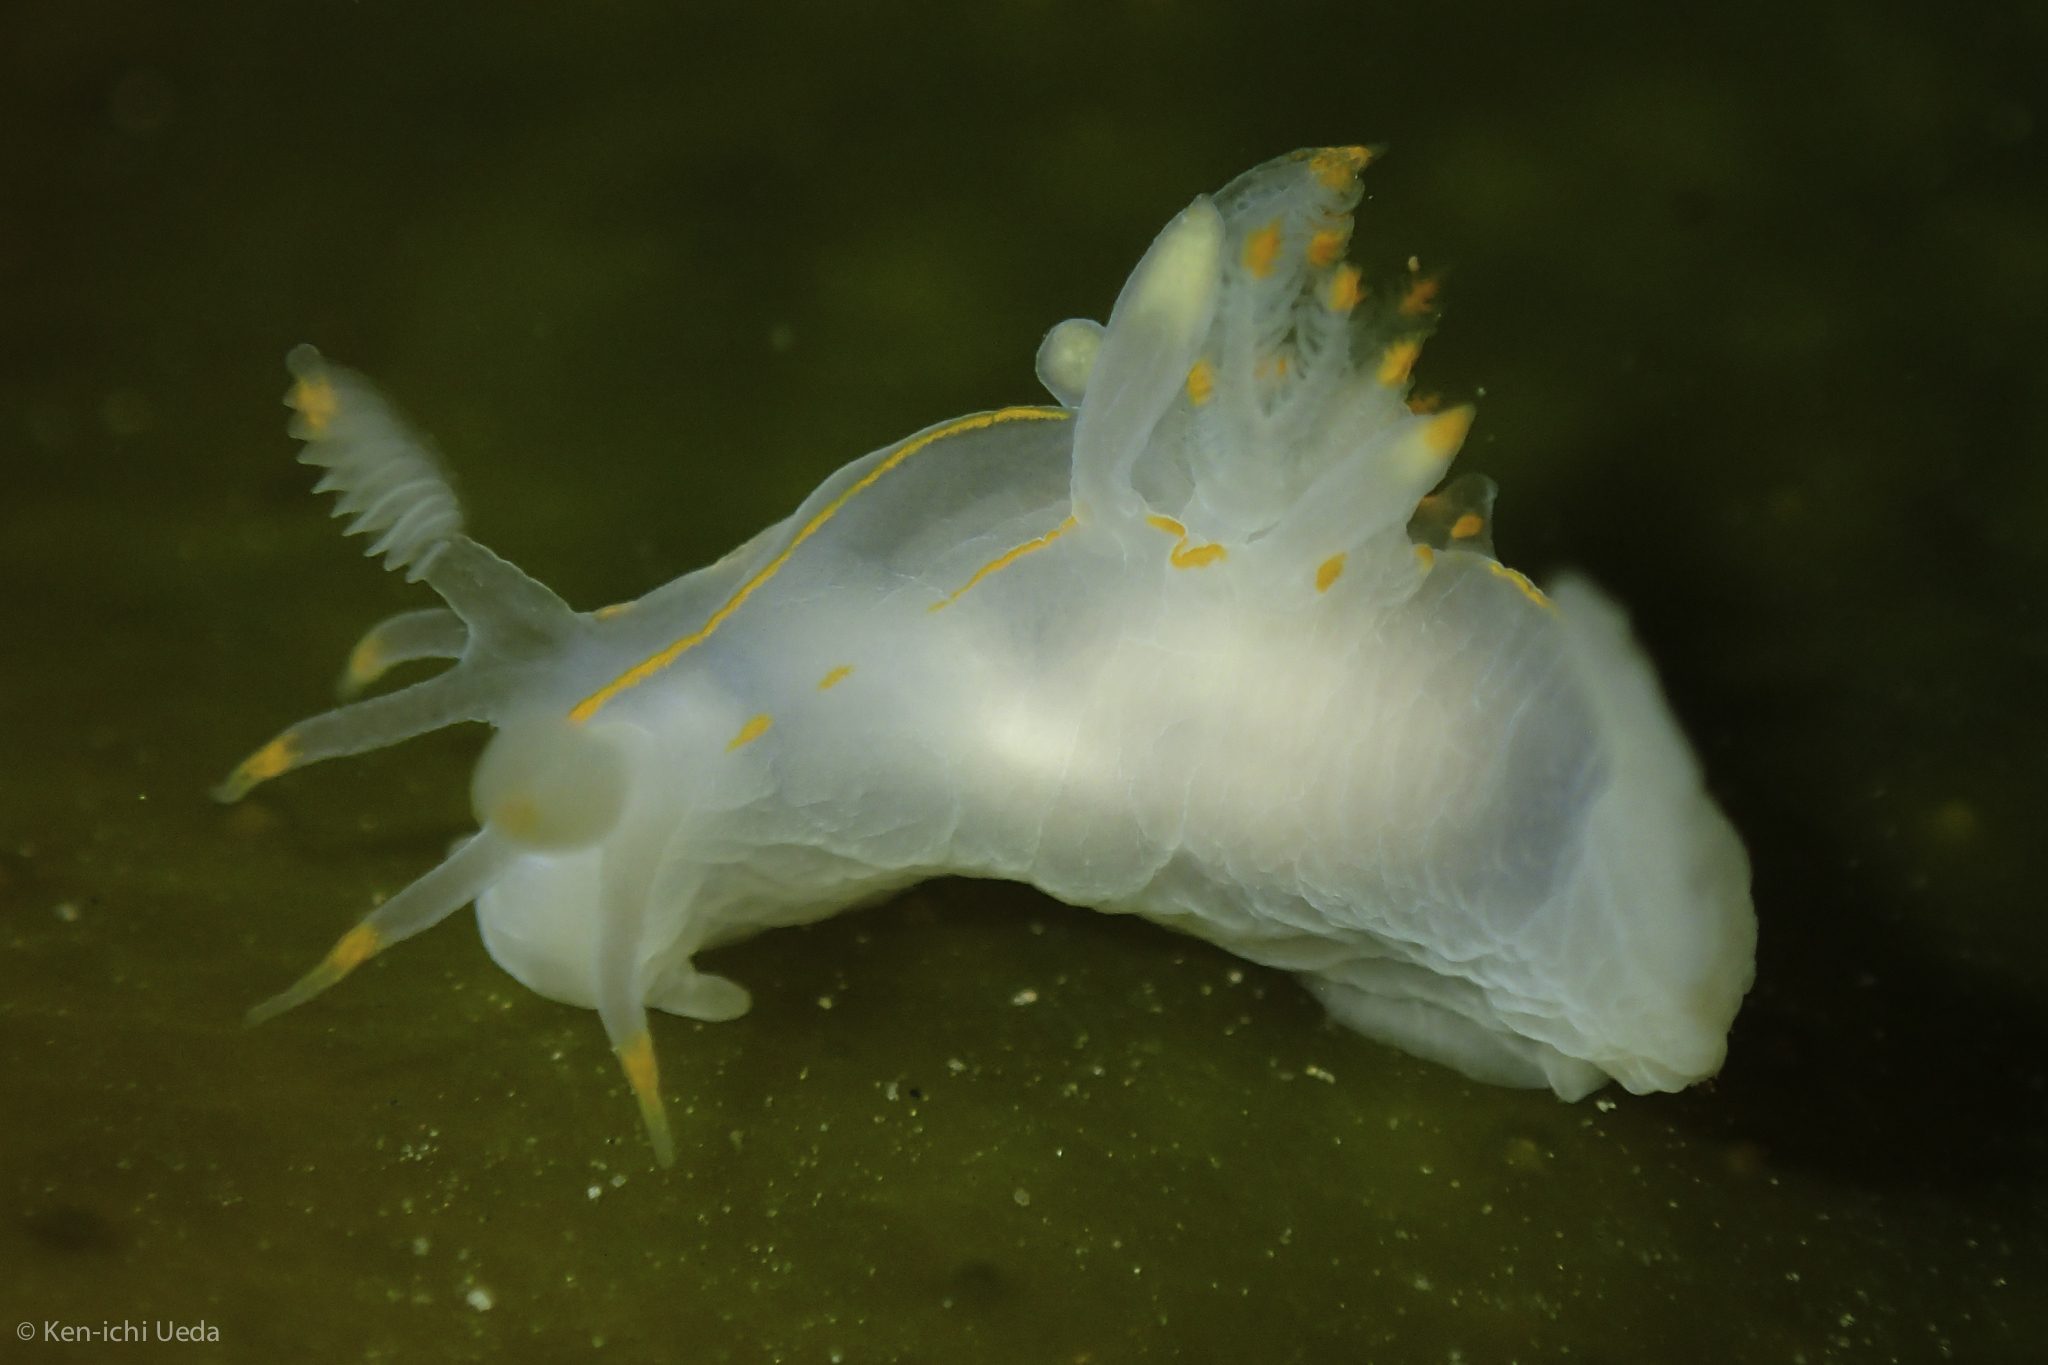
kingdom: Animalia
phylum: Mollusca
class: Gastropoda
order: Nudibranchia
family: Goniodorididae
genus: Ancula
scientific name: Ancula pacifica
